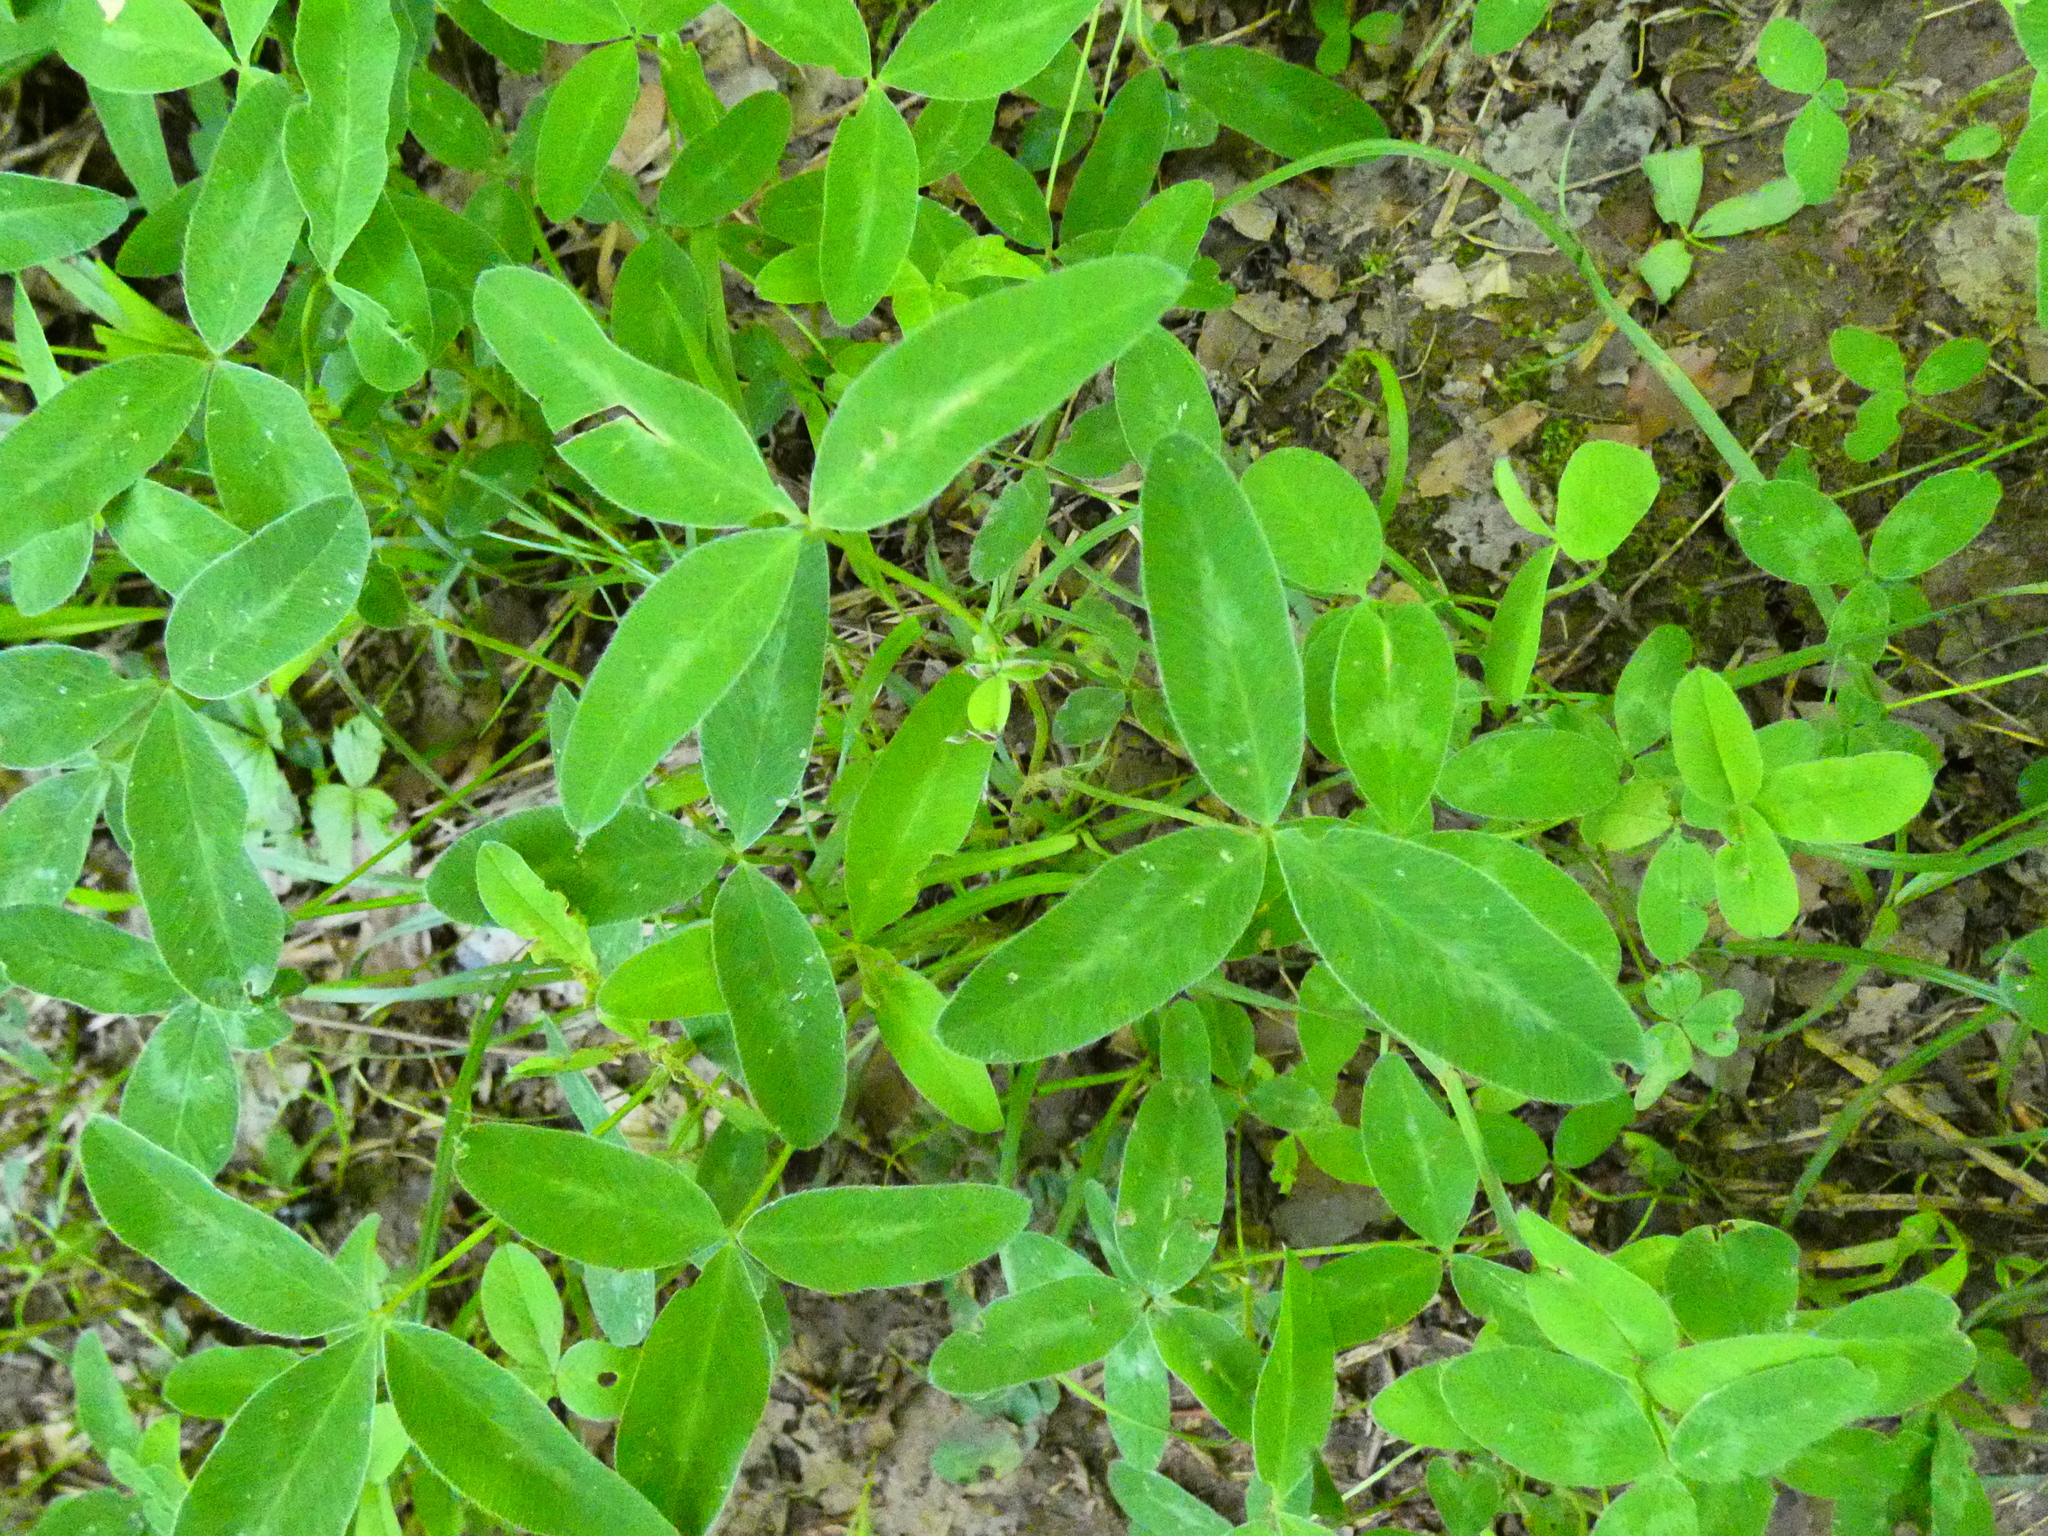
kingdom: Plantae
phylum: Tracheophyta
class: Magnoliopsida
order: Fabales
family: Fabaceae
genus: Trifolium
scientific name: Trifolium medium
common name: Zigzag clover
